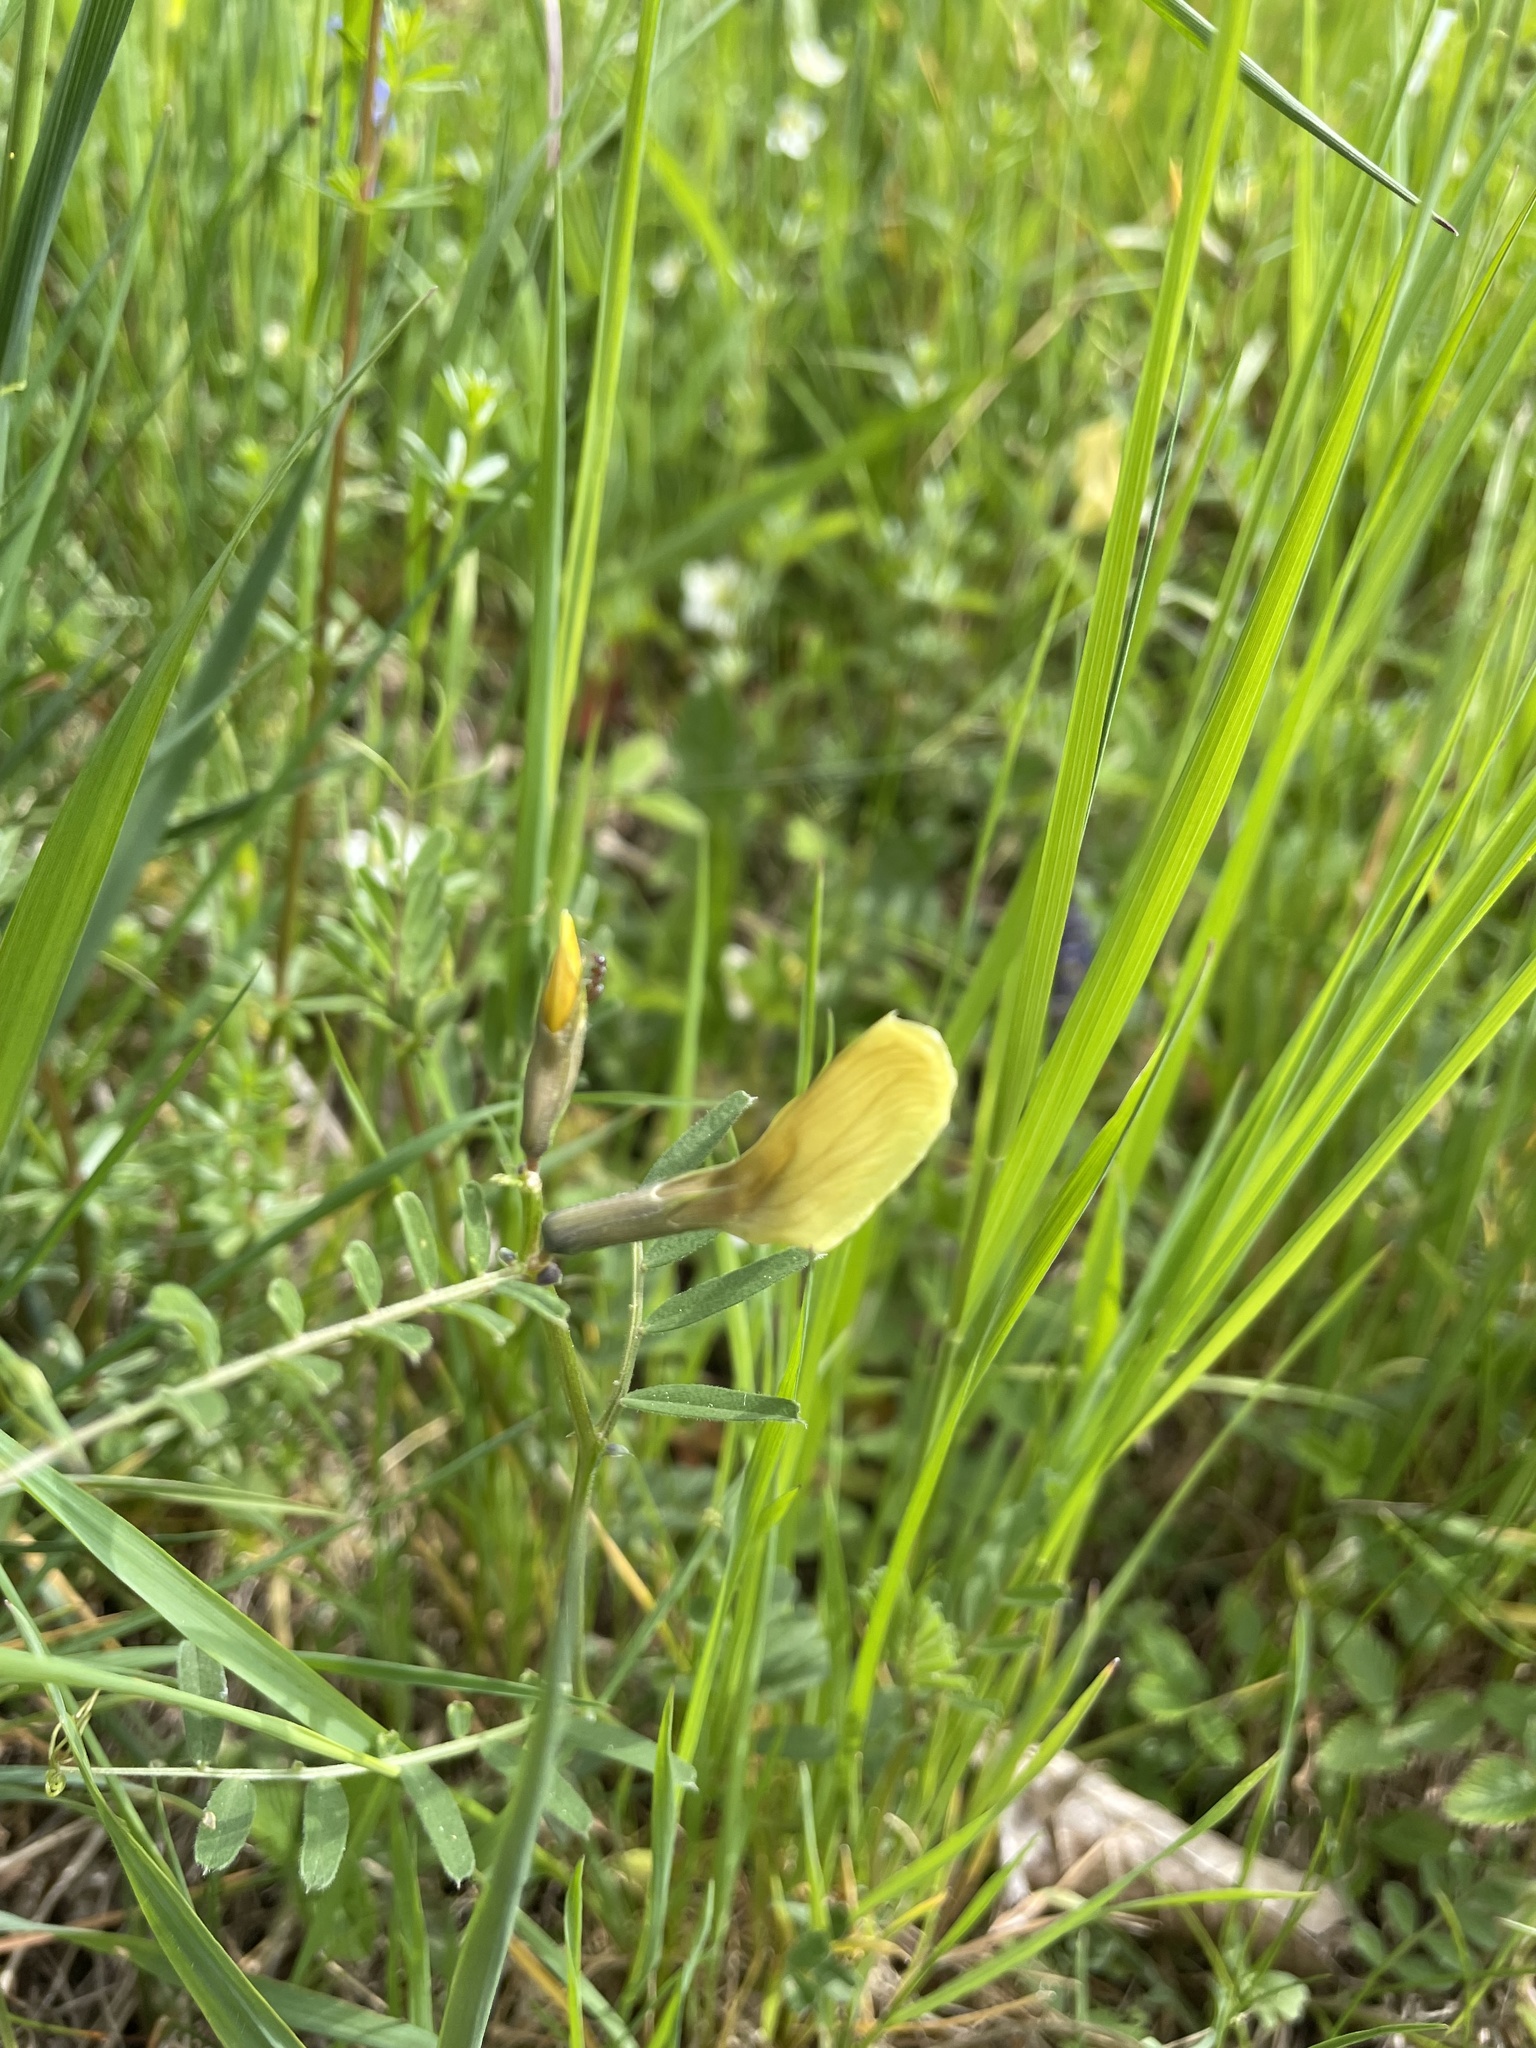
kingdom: Plantae
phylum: Tracheophyta
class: Magnoliopsida
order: Fabales
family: Fabaceae
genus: Vicia
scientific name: Vicia grandiflora
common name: Large yellow vetch
